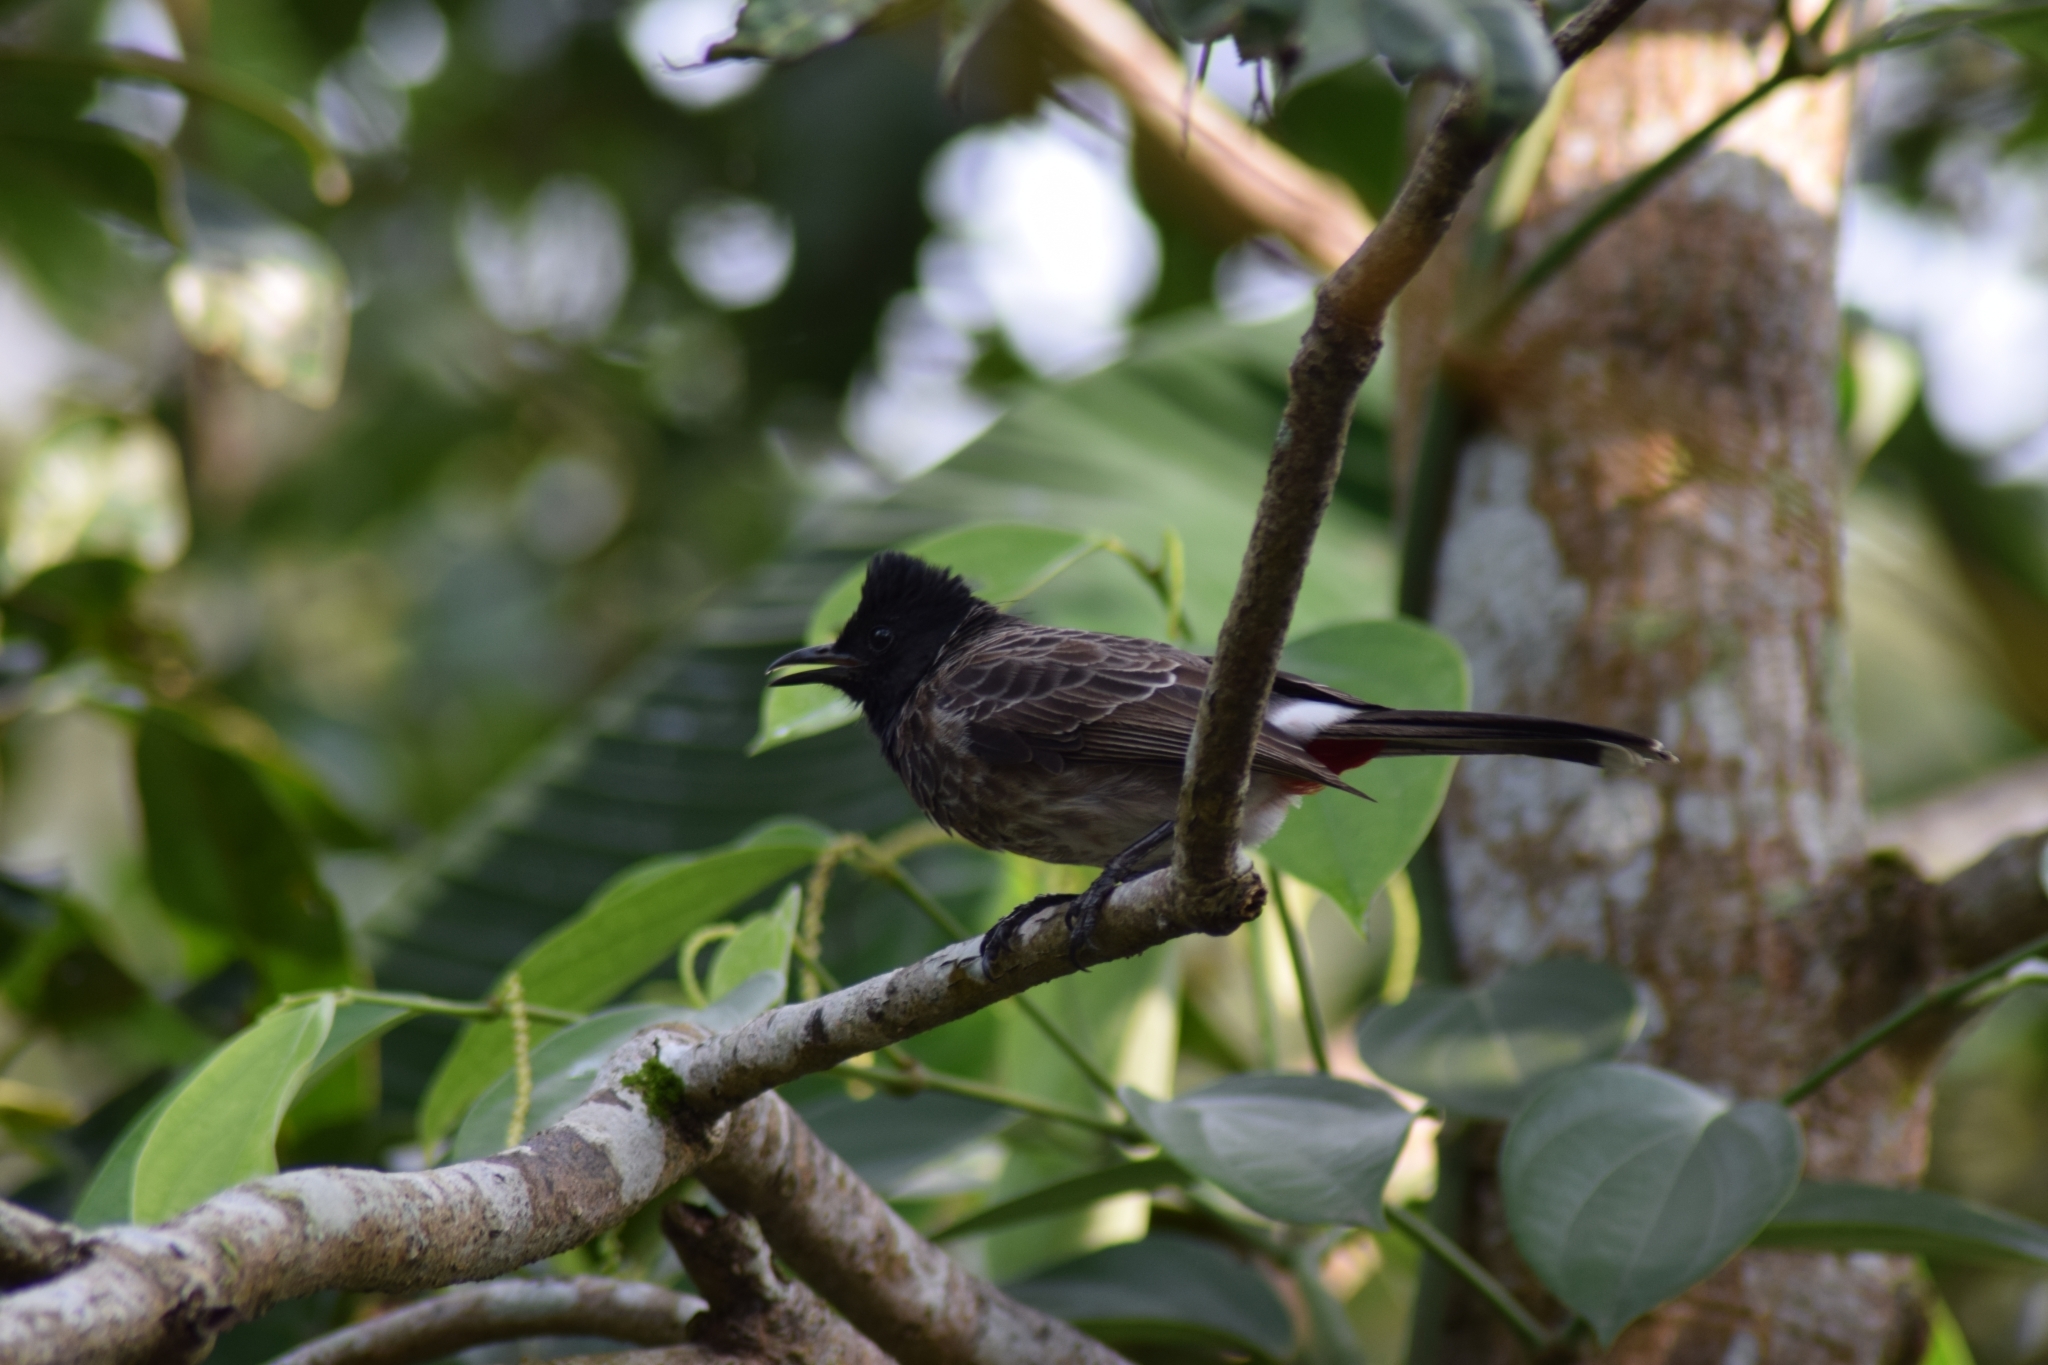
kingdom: Animalia
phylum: Chordata
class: Aves
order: Passeriformes
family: Pycnonotidae
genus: Pycnonotus
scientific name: Pycnonotus cafer
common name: Red-vented bulbul
